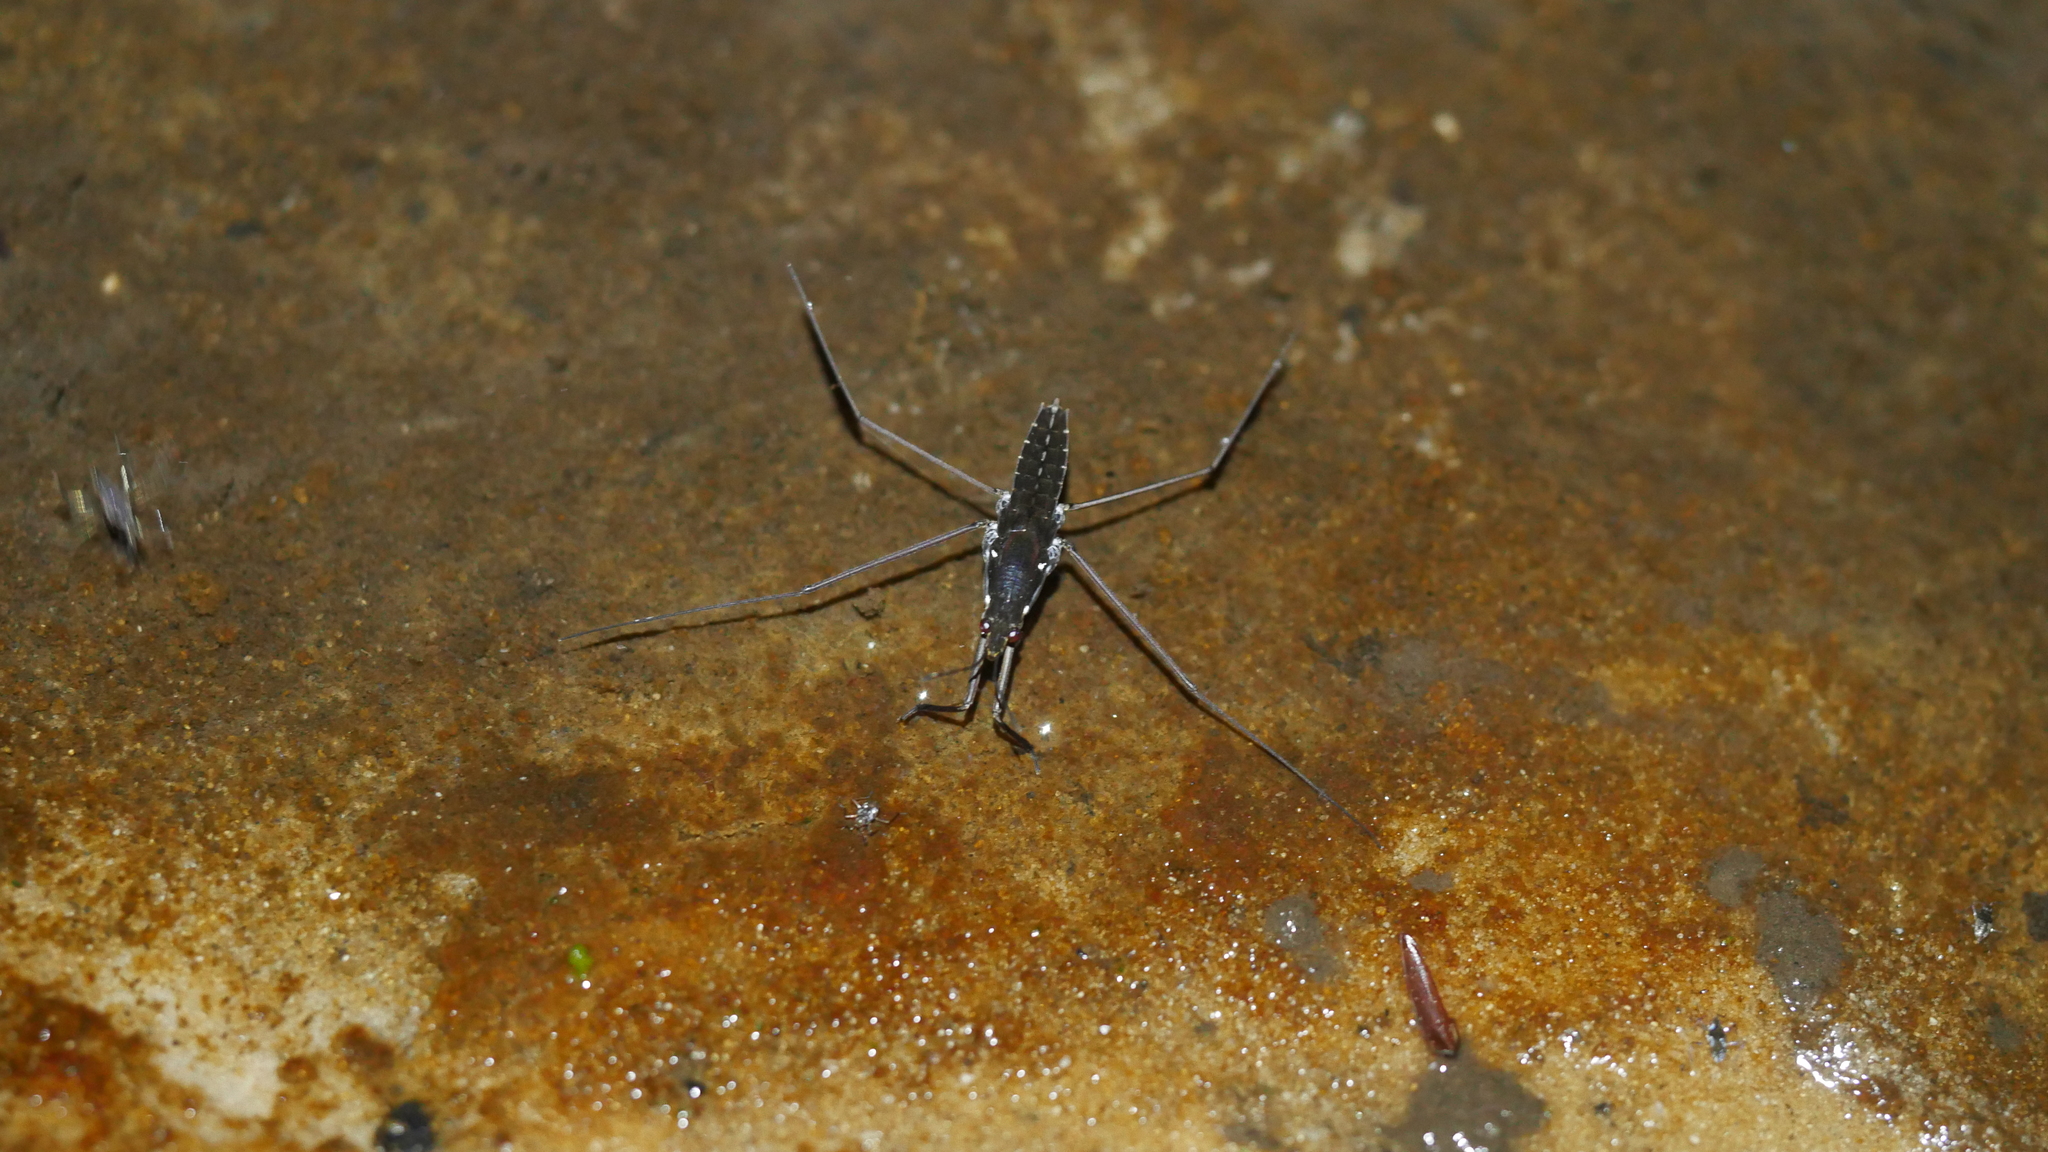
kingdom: Animalia
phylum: Arthropoda
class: Insecta
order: Hemiptera
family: Gerridae
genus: Aquarius
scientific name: Aquarius
